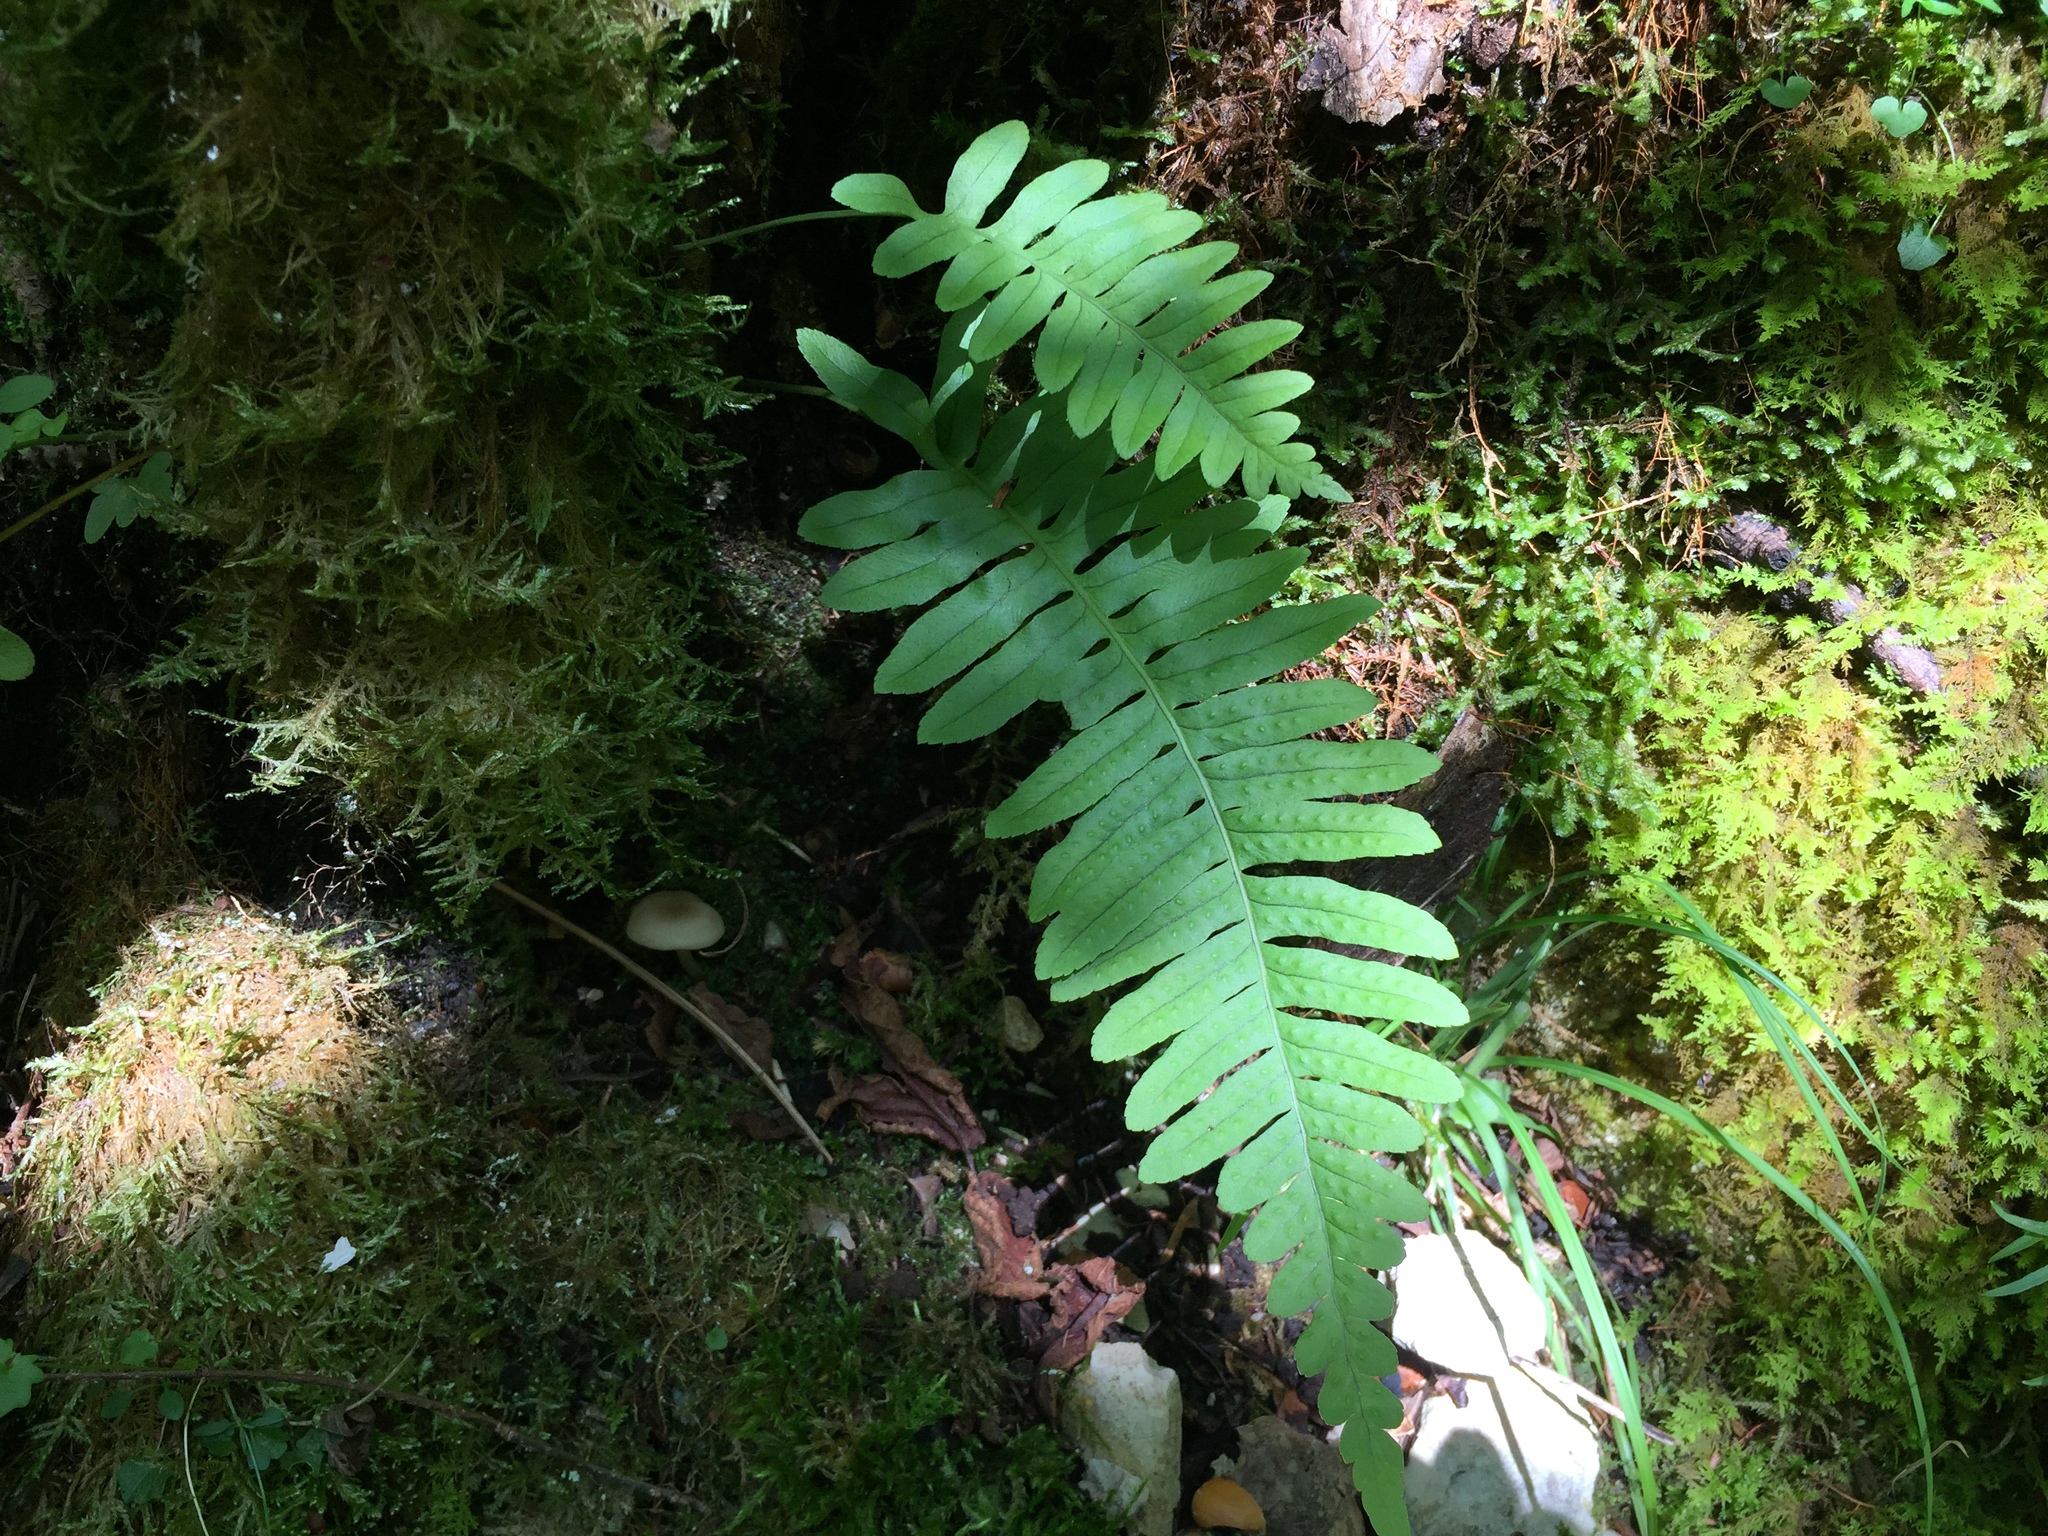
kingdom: Plantae
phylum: Tracheophyta
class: Polypodiopsida
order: Polypodiales
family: Polypodiaceae
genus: Polypodium
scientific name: Polypodium vulgare
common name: Common polypody
